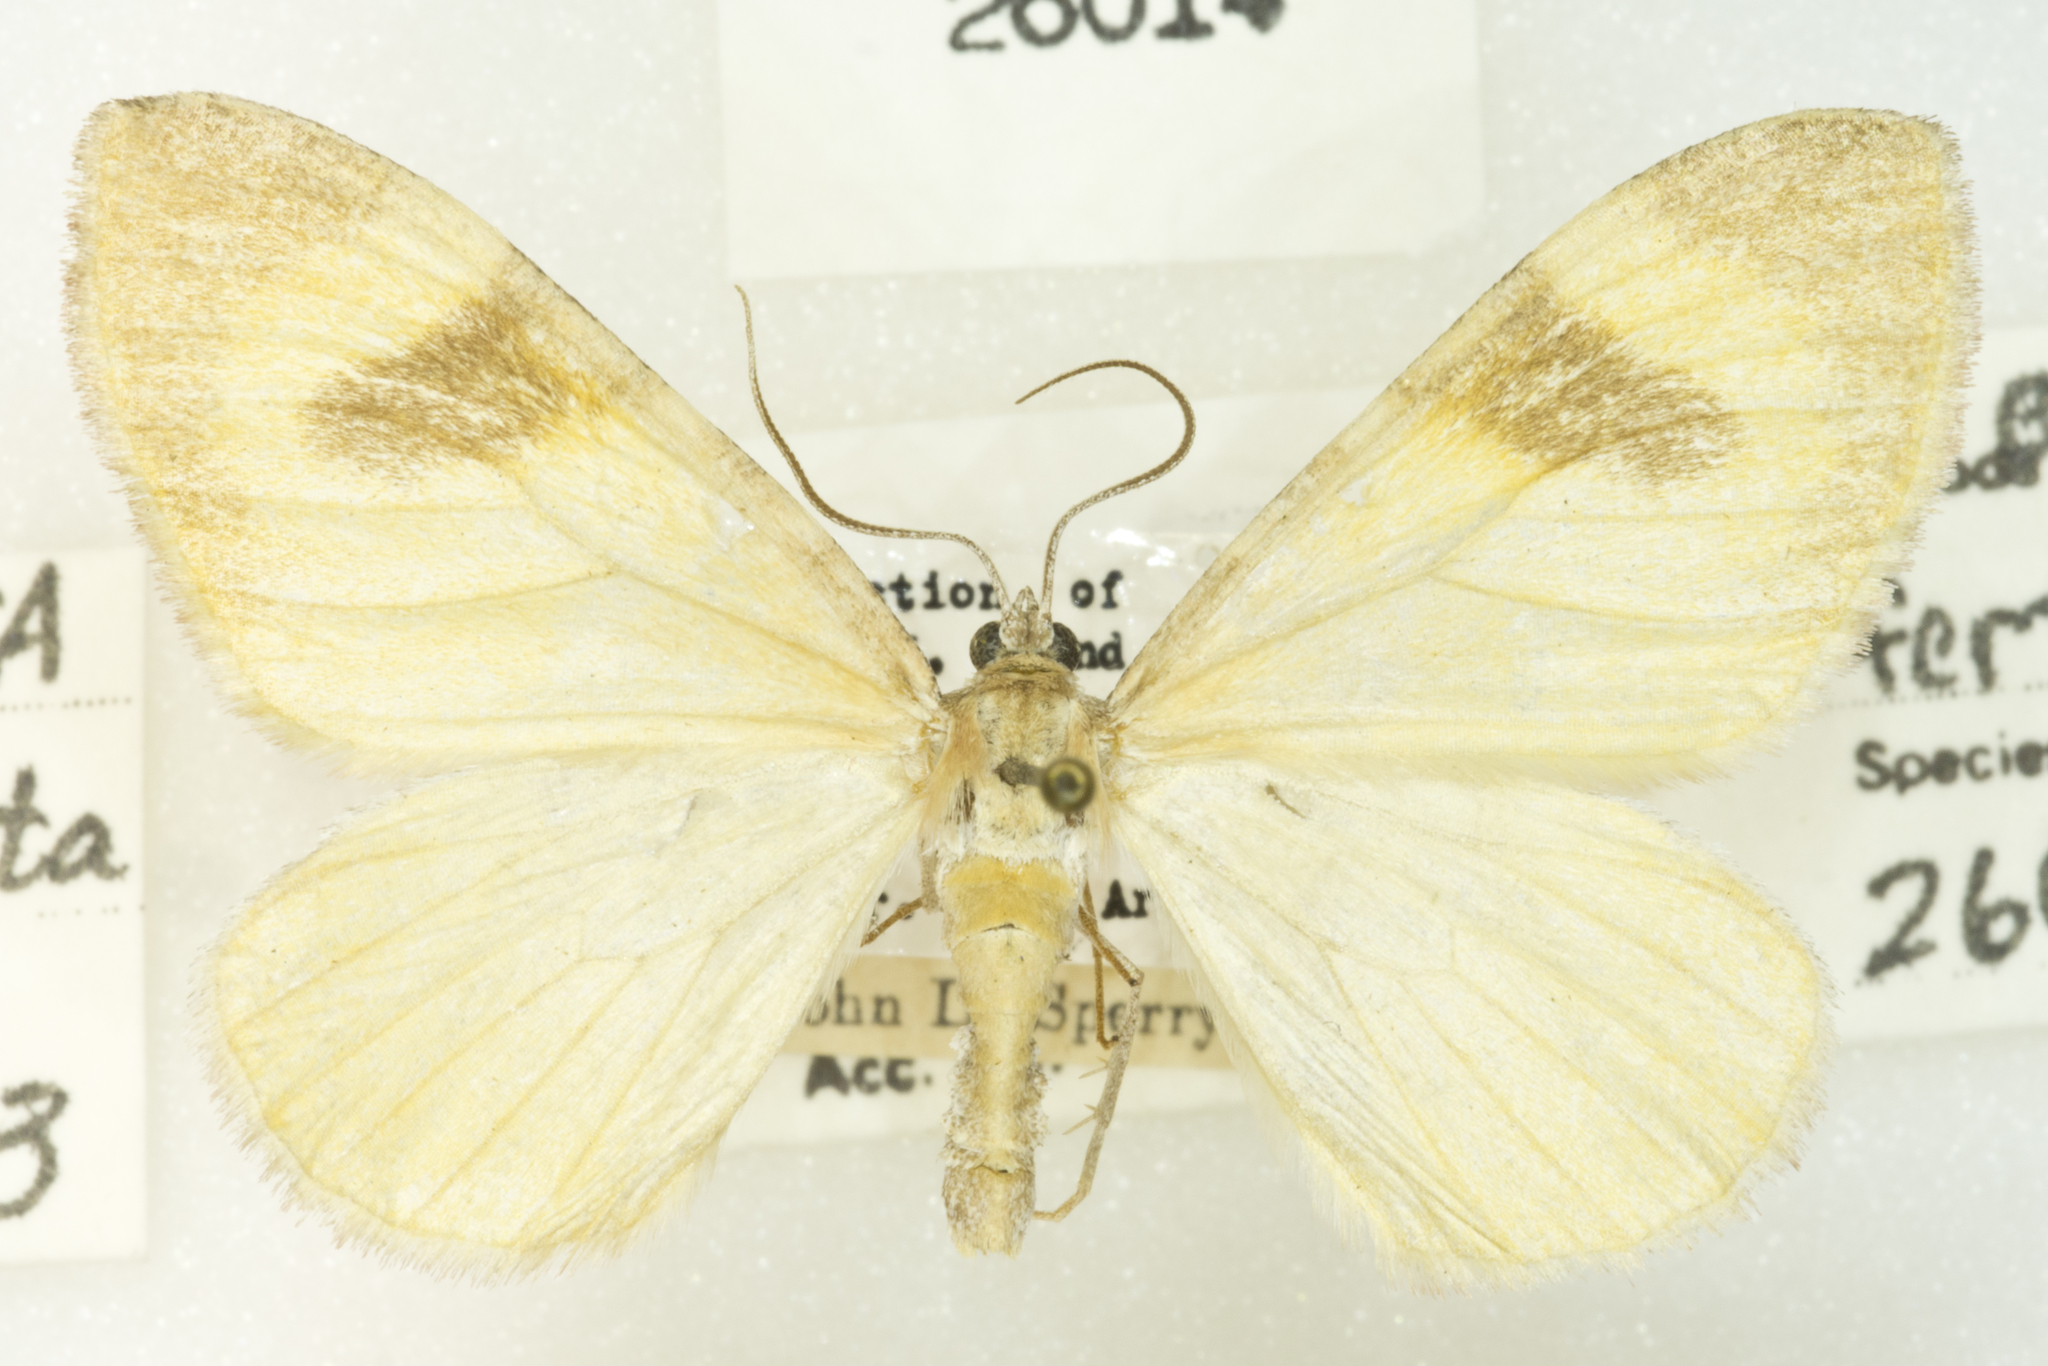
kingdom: Animalia
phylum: Arthropoda
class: Insecta
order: Lepidoptera
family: Geometridae
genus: Stamnodes
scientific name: Stamnodes seiferti
